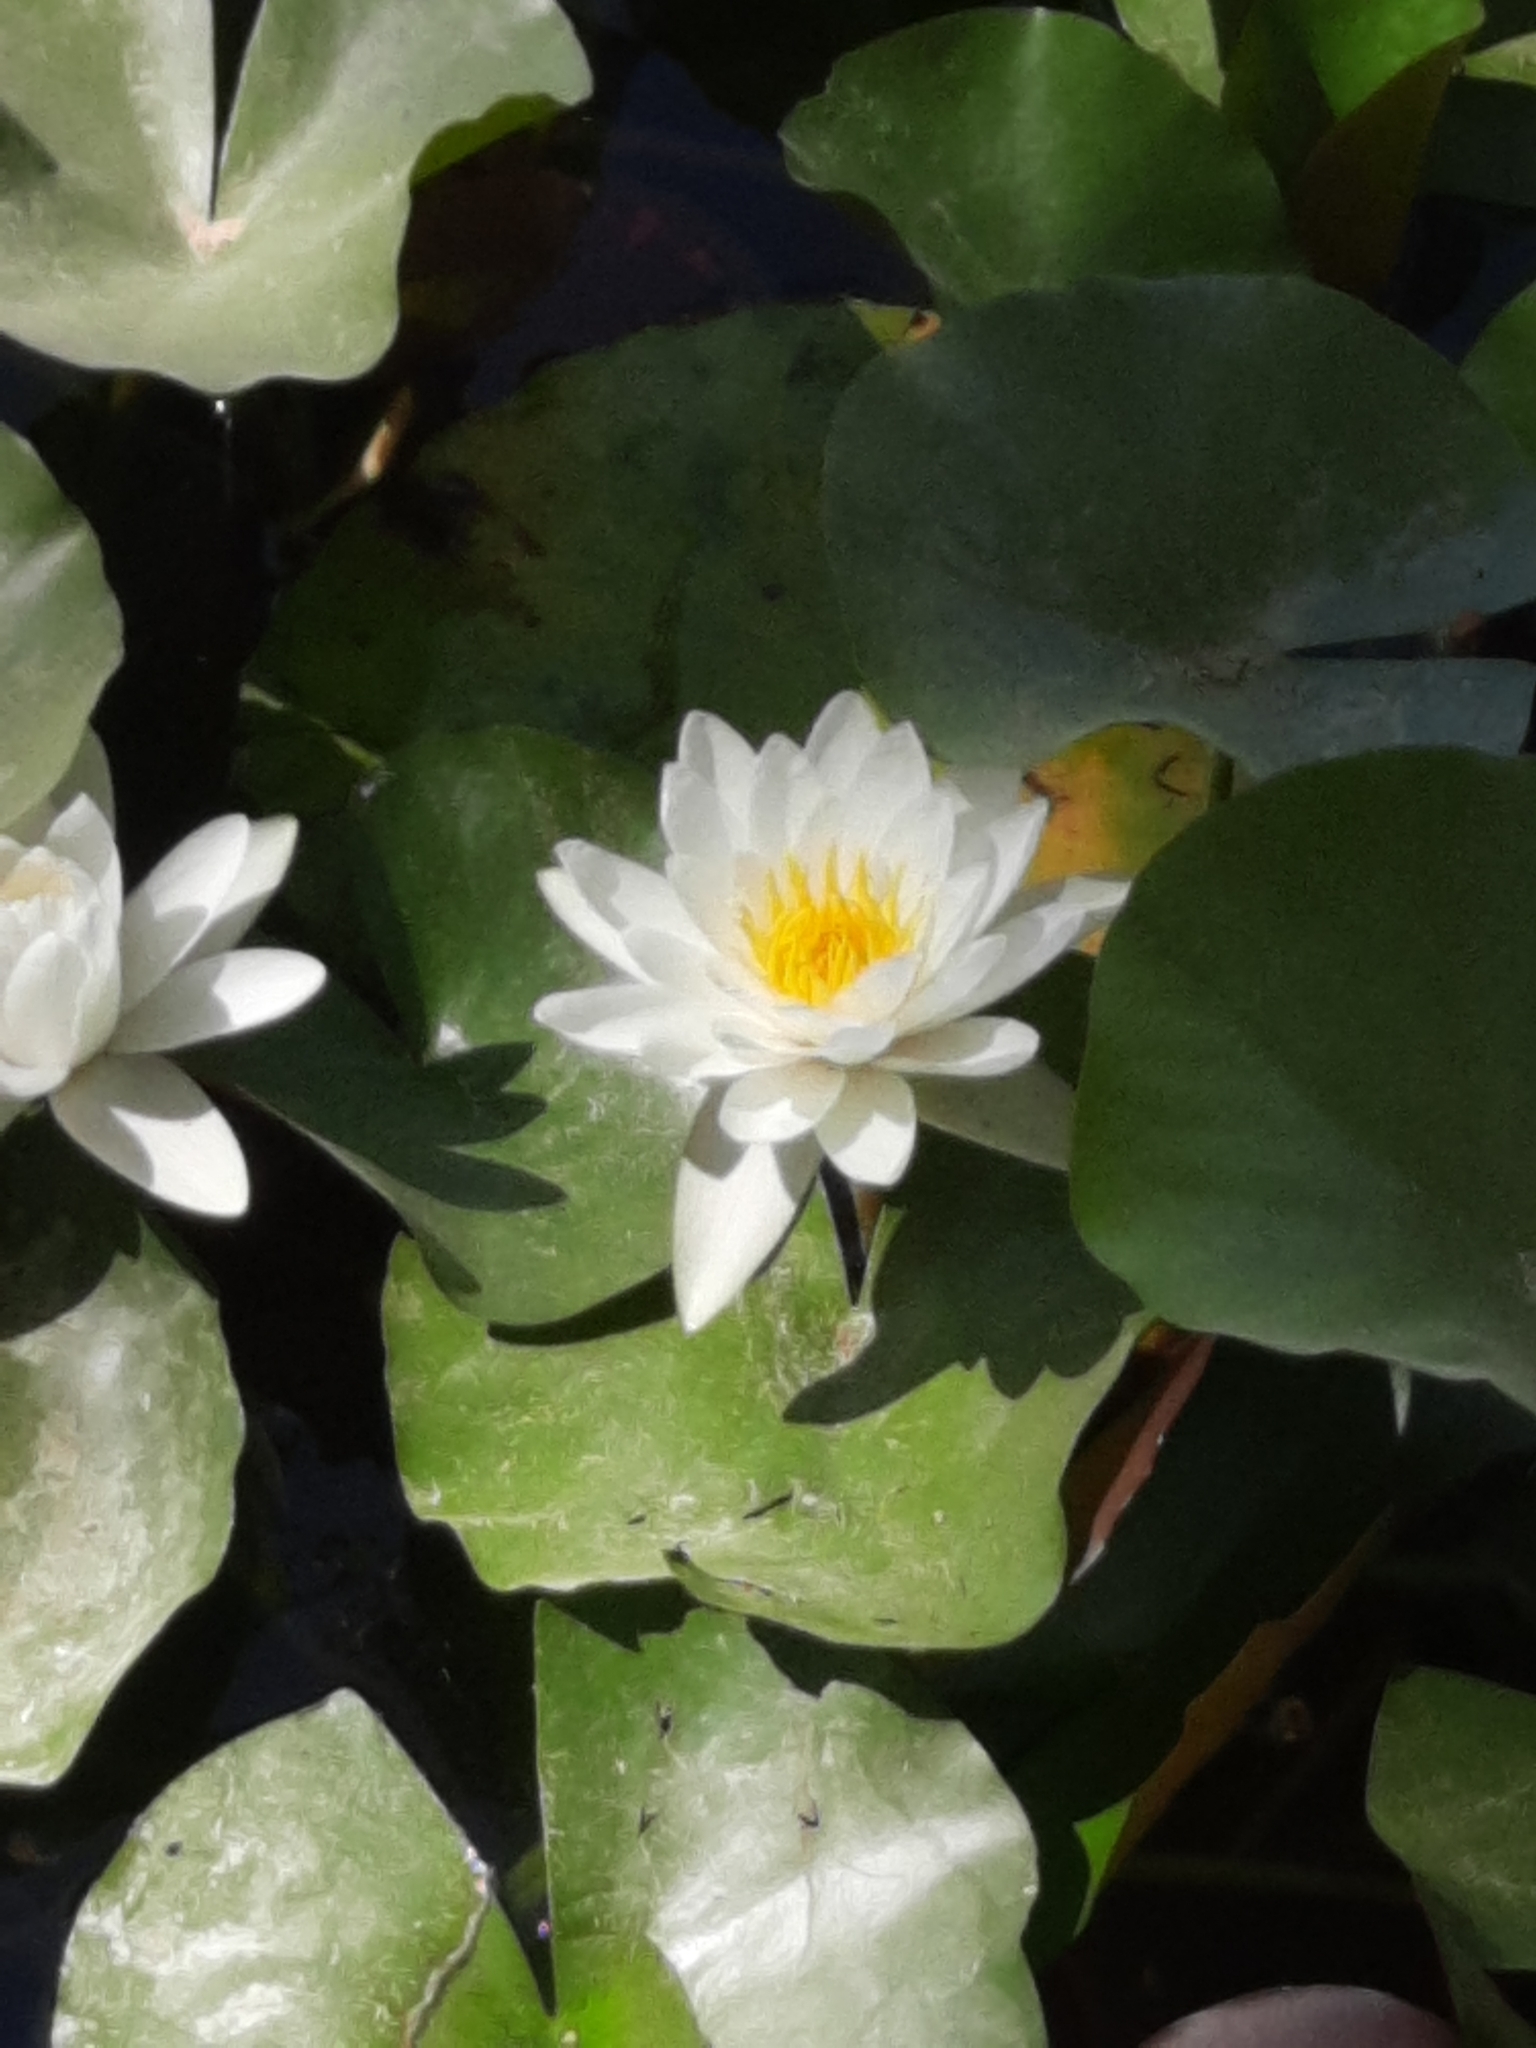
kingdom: Plantae
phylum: Tracheophyta
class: Magnoliopsida
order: Nymphaeales
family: Nymphaeaceae
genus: Nymphaea
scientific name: Nymphaea alba
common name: White water-lily
